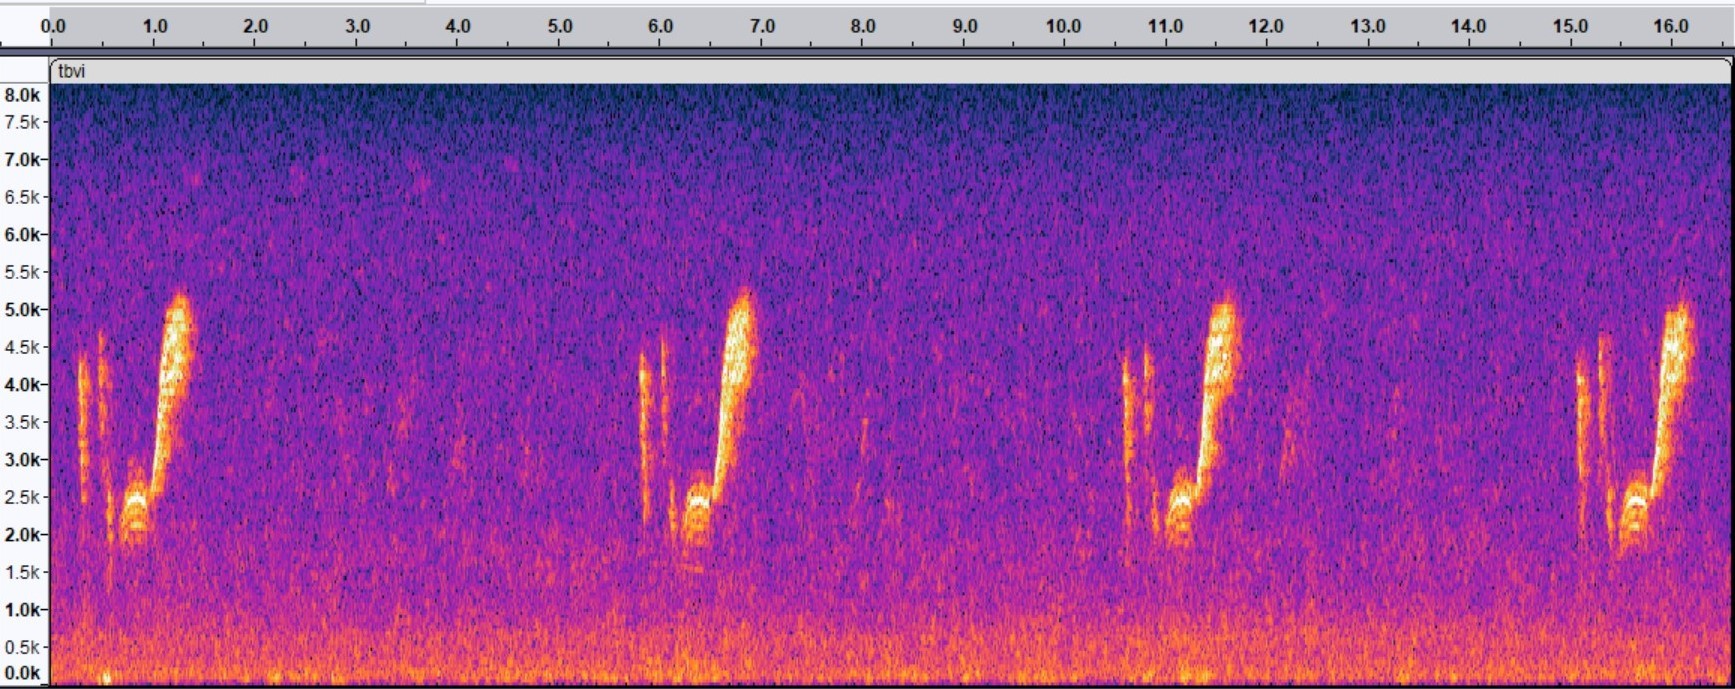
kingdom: Animalia
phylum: Chordata
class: Aves
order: Passeriformes
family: Vireonidae
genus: Vireo
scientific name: Vireo crassirostris
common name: Thick-billed vireo
